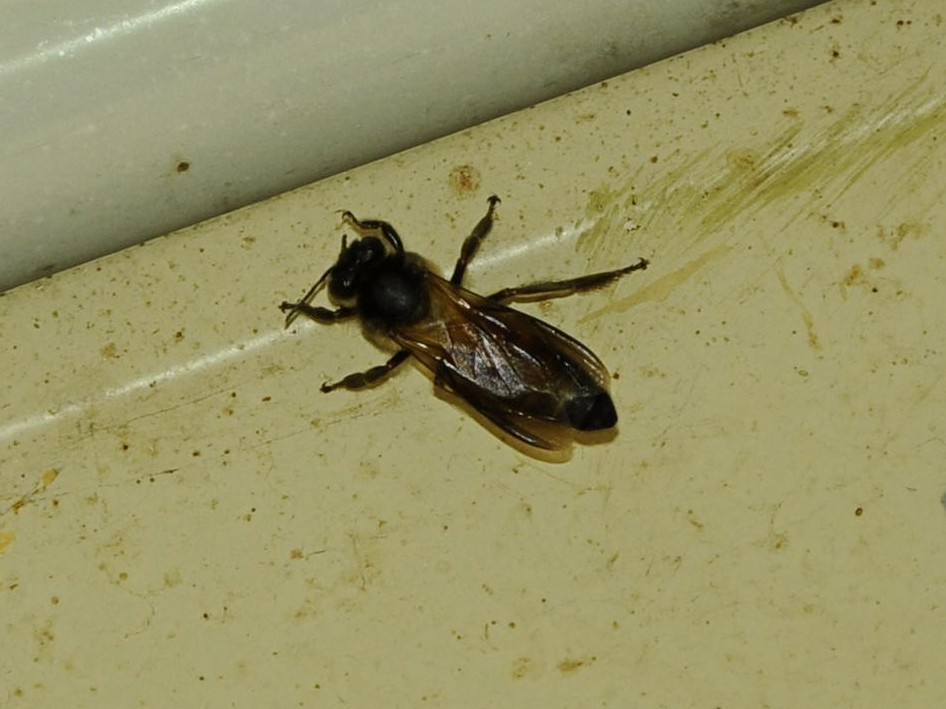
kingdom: Animalia
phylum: Arthropoda
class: Insecta
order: Hymenoptera
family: Apidae
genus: Apis
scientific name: Apis dorsata
